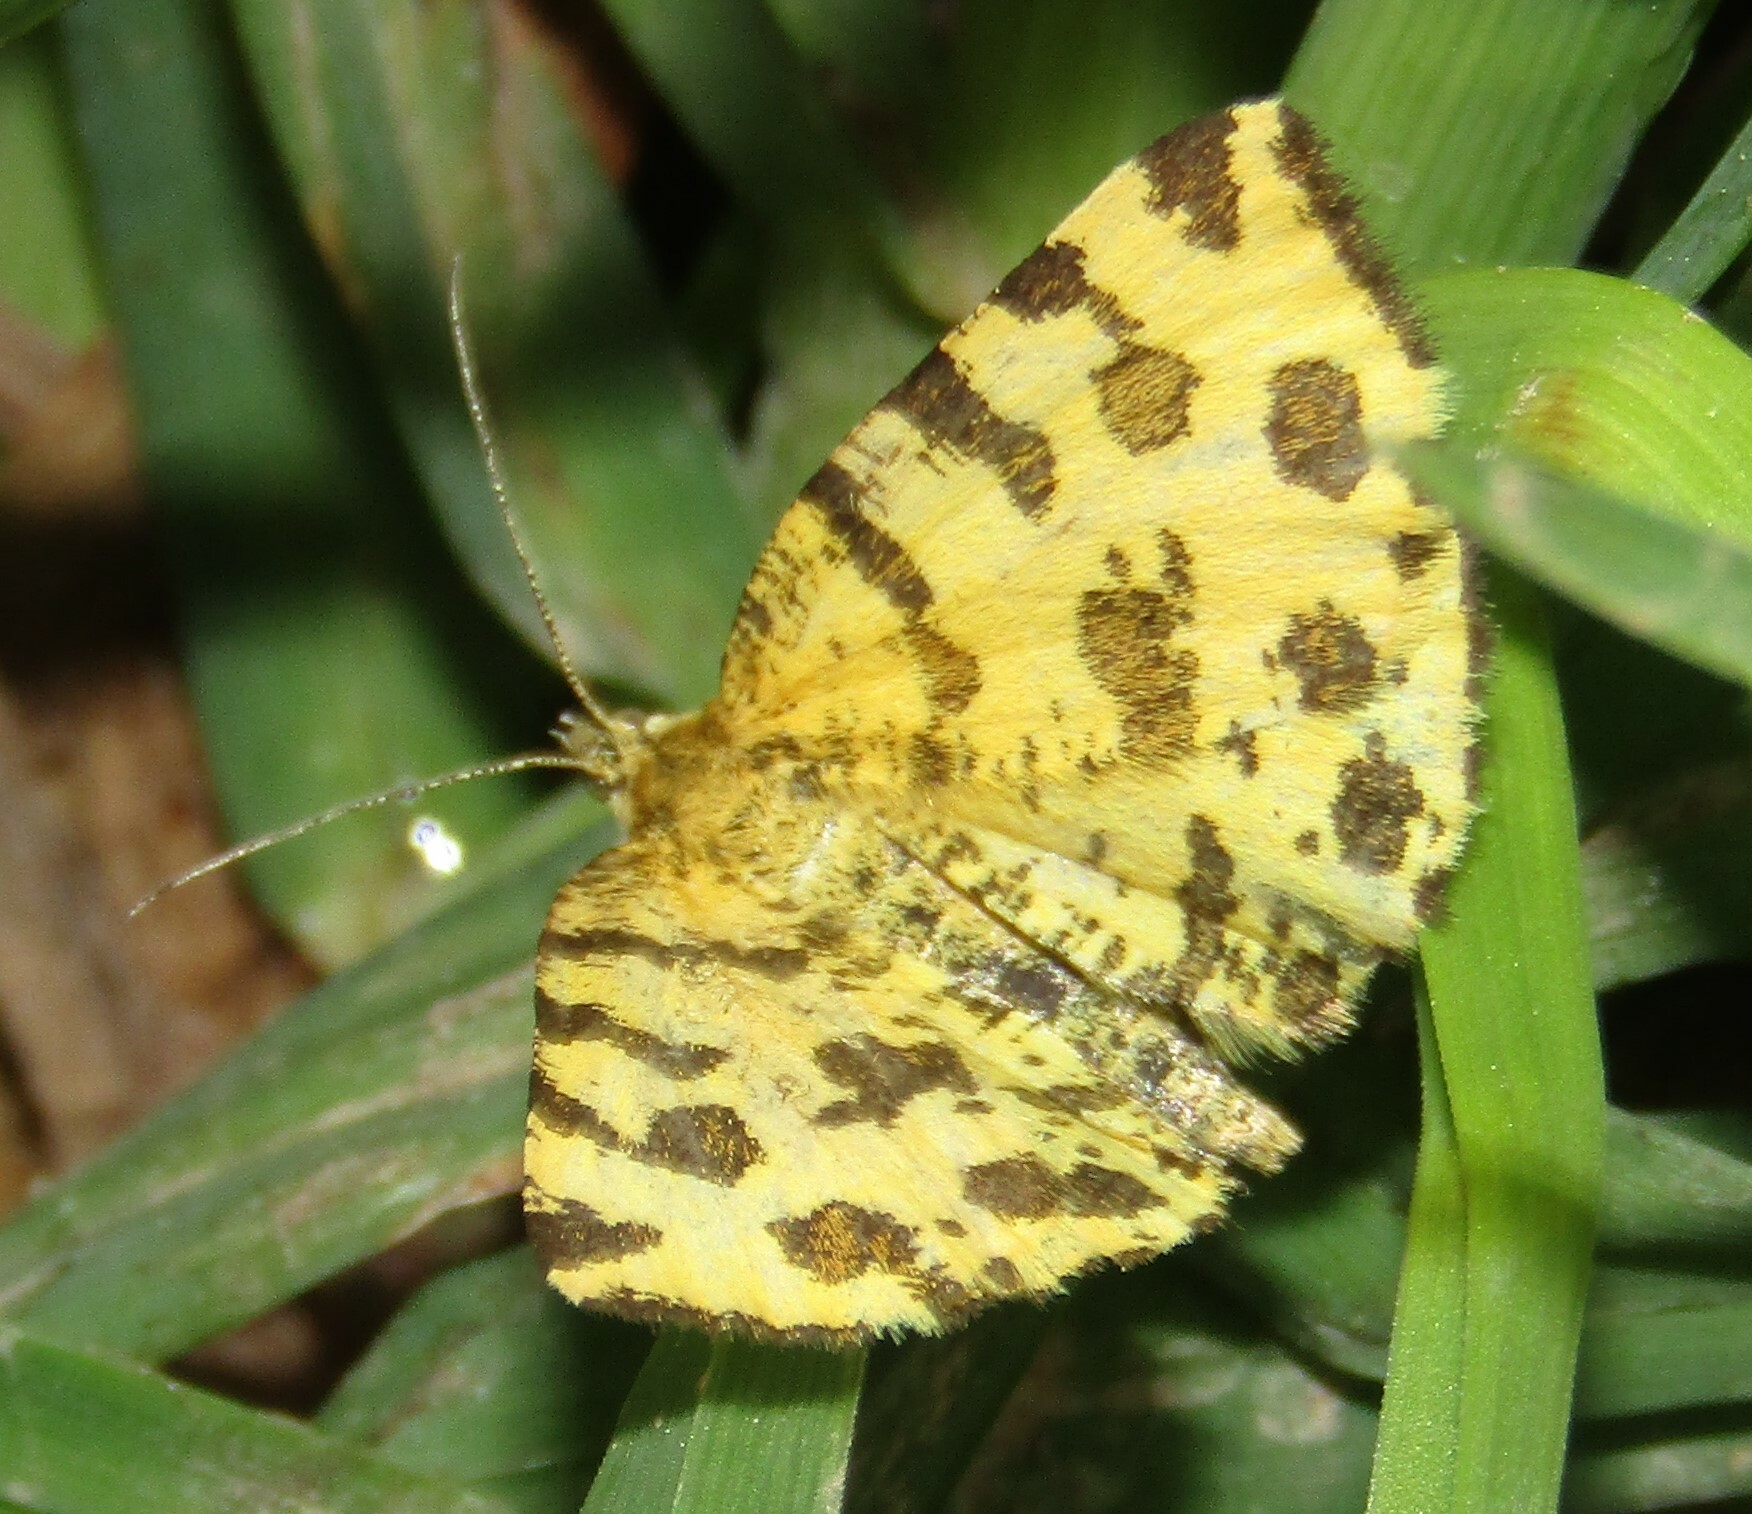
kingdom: Animalia
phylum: Arthropoda
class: Insecta
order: Lepidoptera
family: Geometridae
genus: Pseudopanthera
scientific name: Pseudopanthera macularia
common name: Speckled yellow
